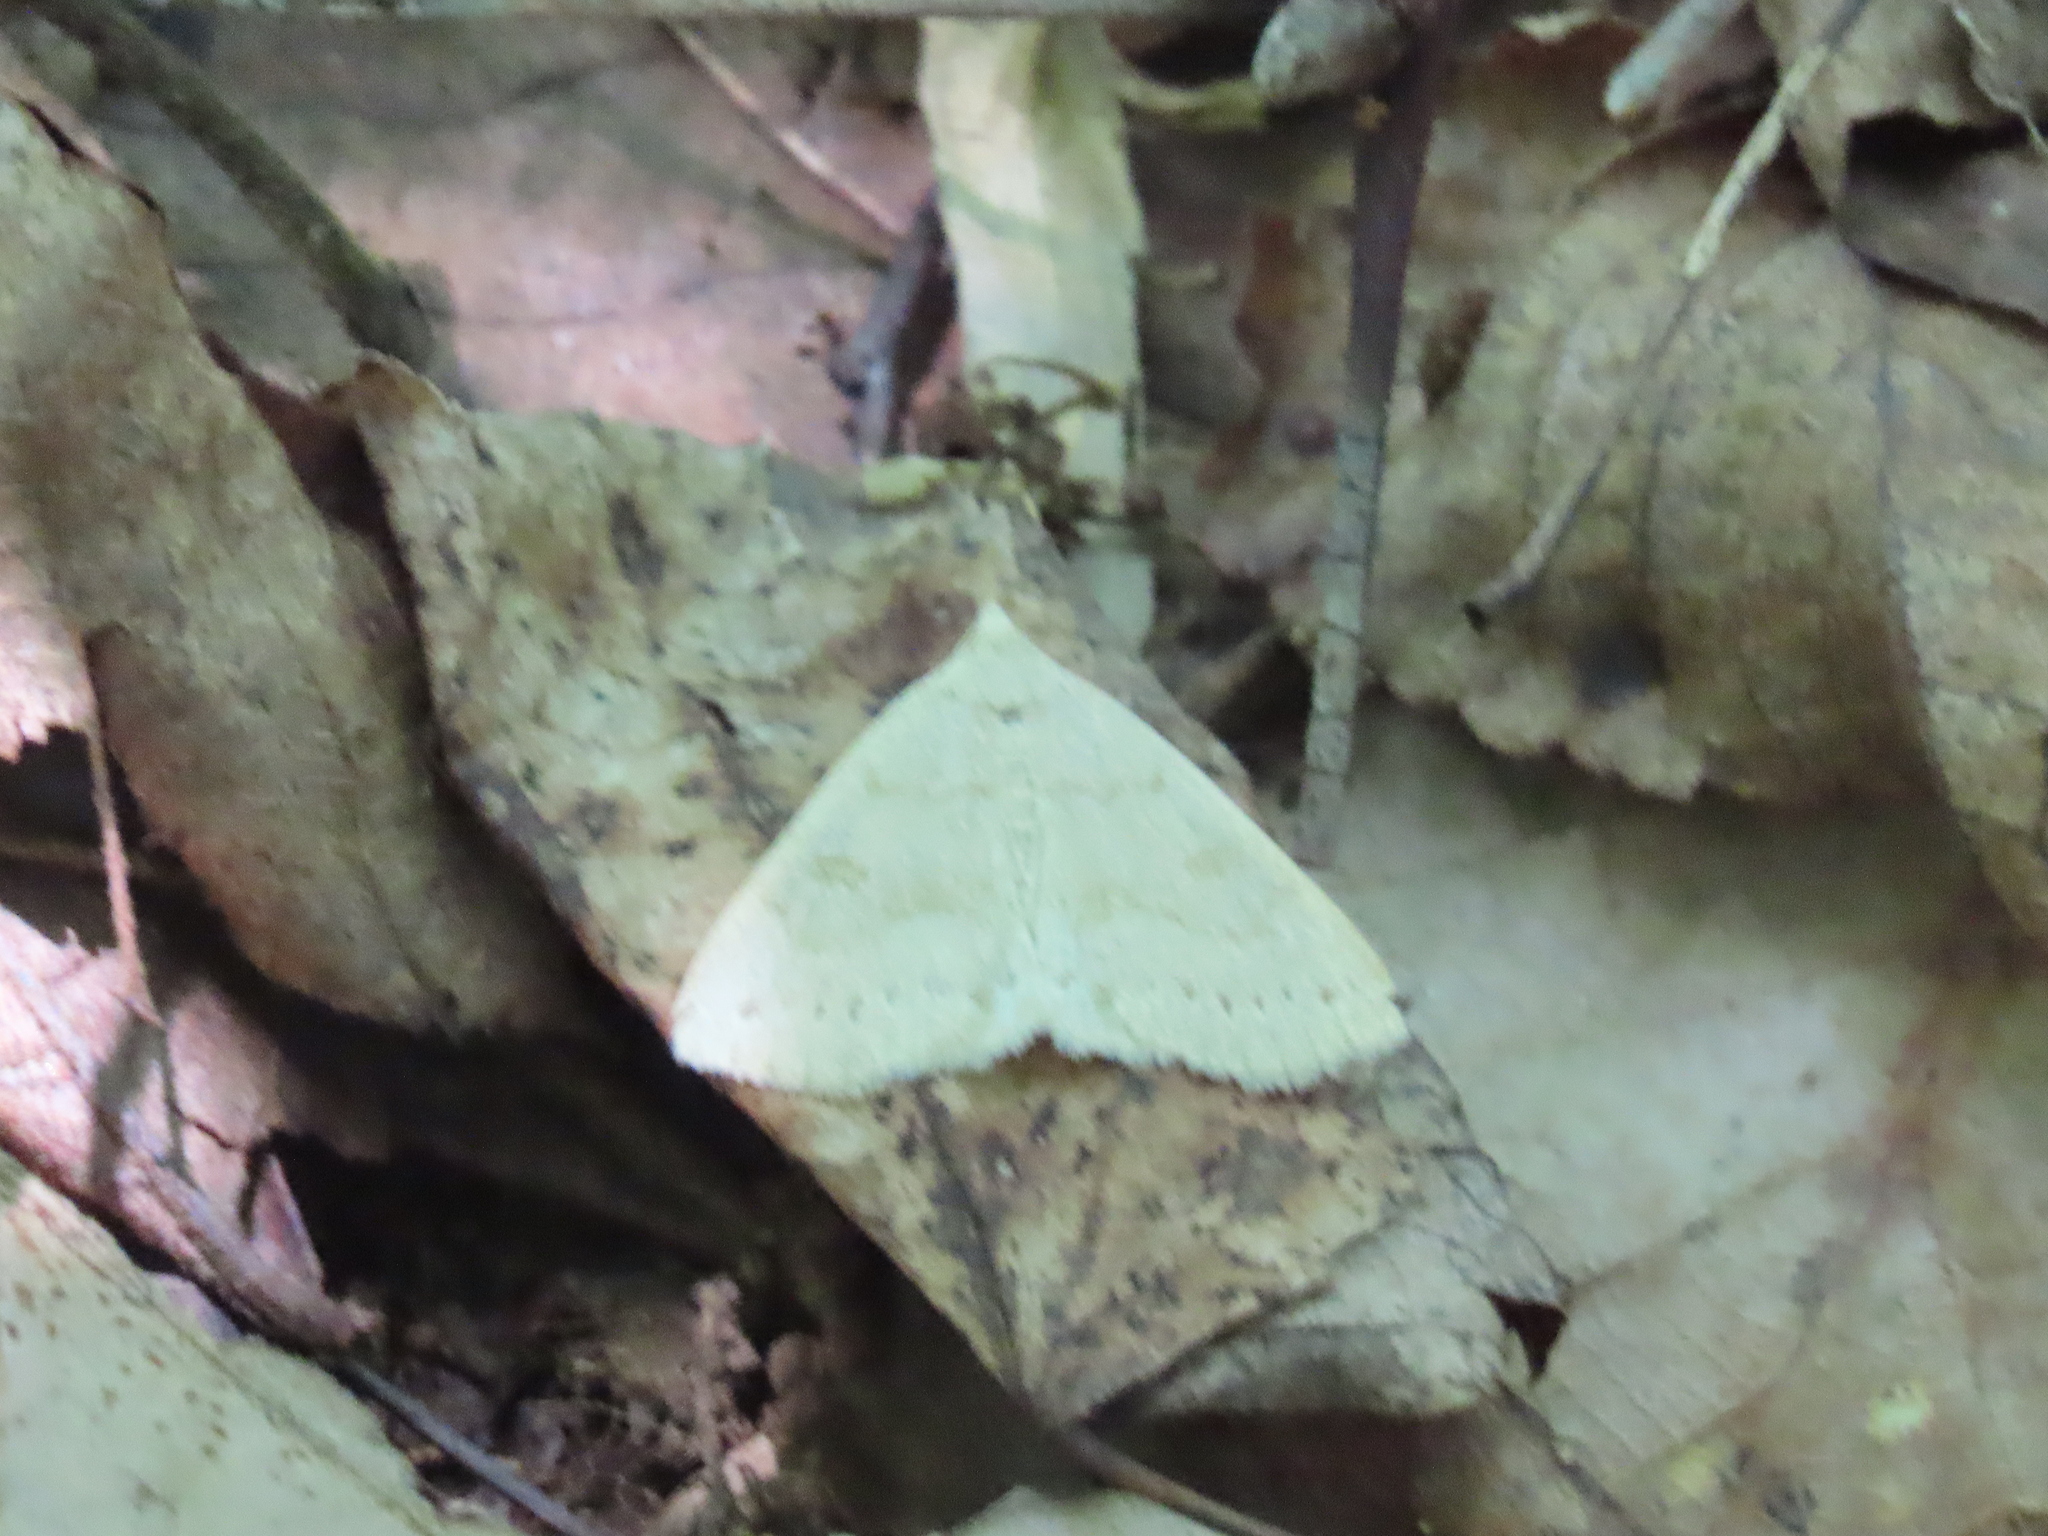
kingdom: Animalia
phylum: Arthropoda
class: Insecta
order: Lepidoptera
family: Erebidae
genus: Macrochilo
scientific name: Macrochilo morbidalis
